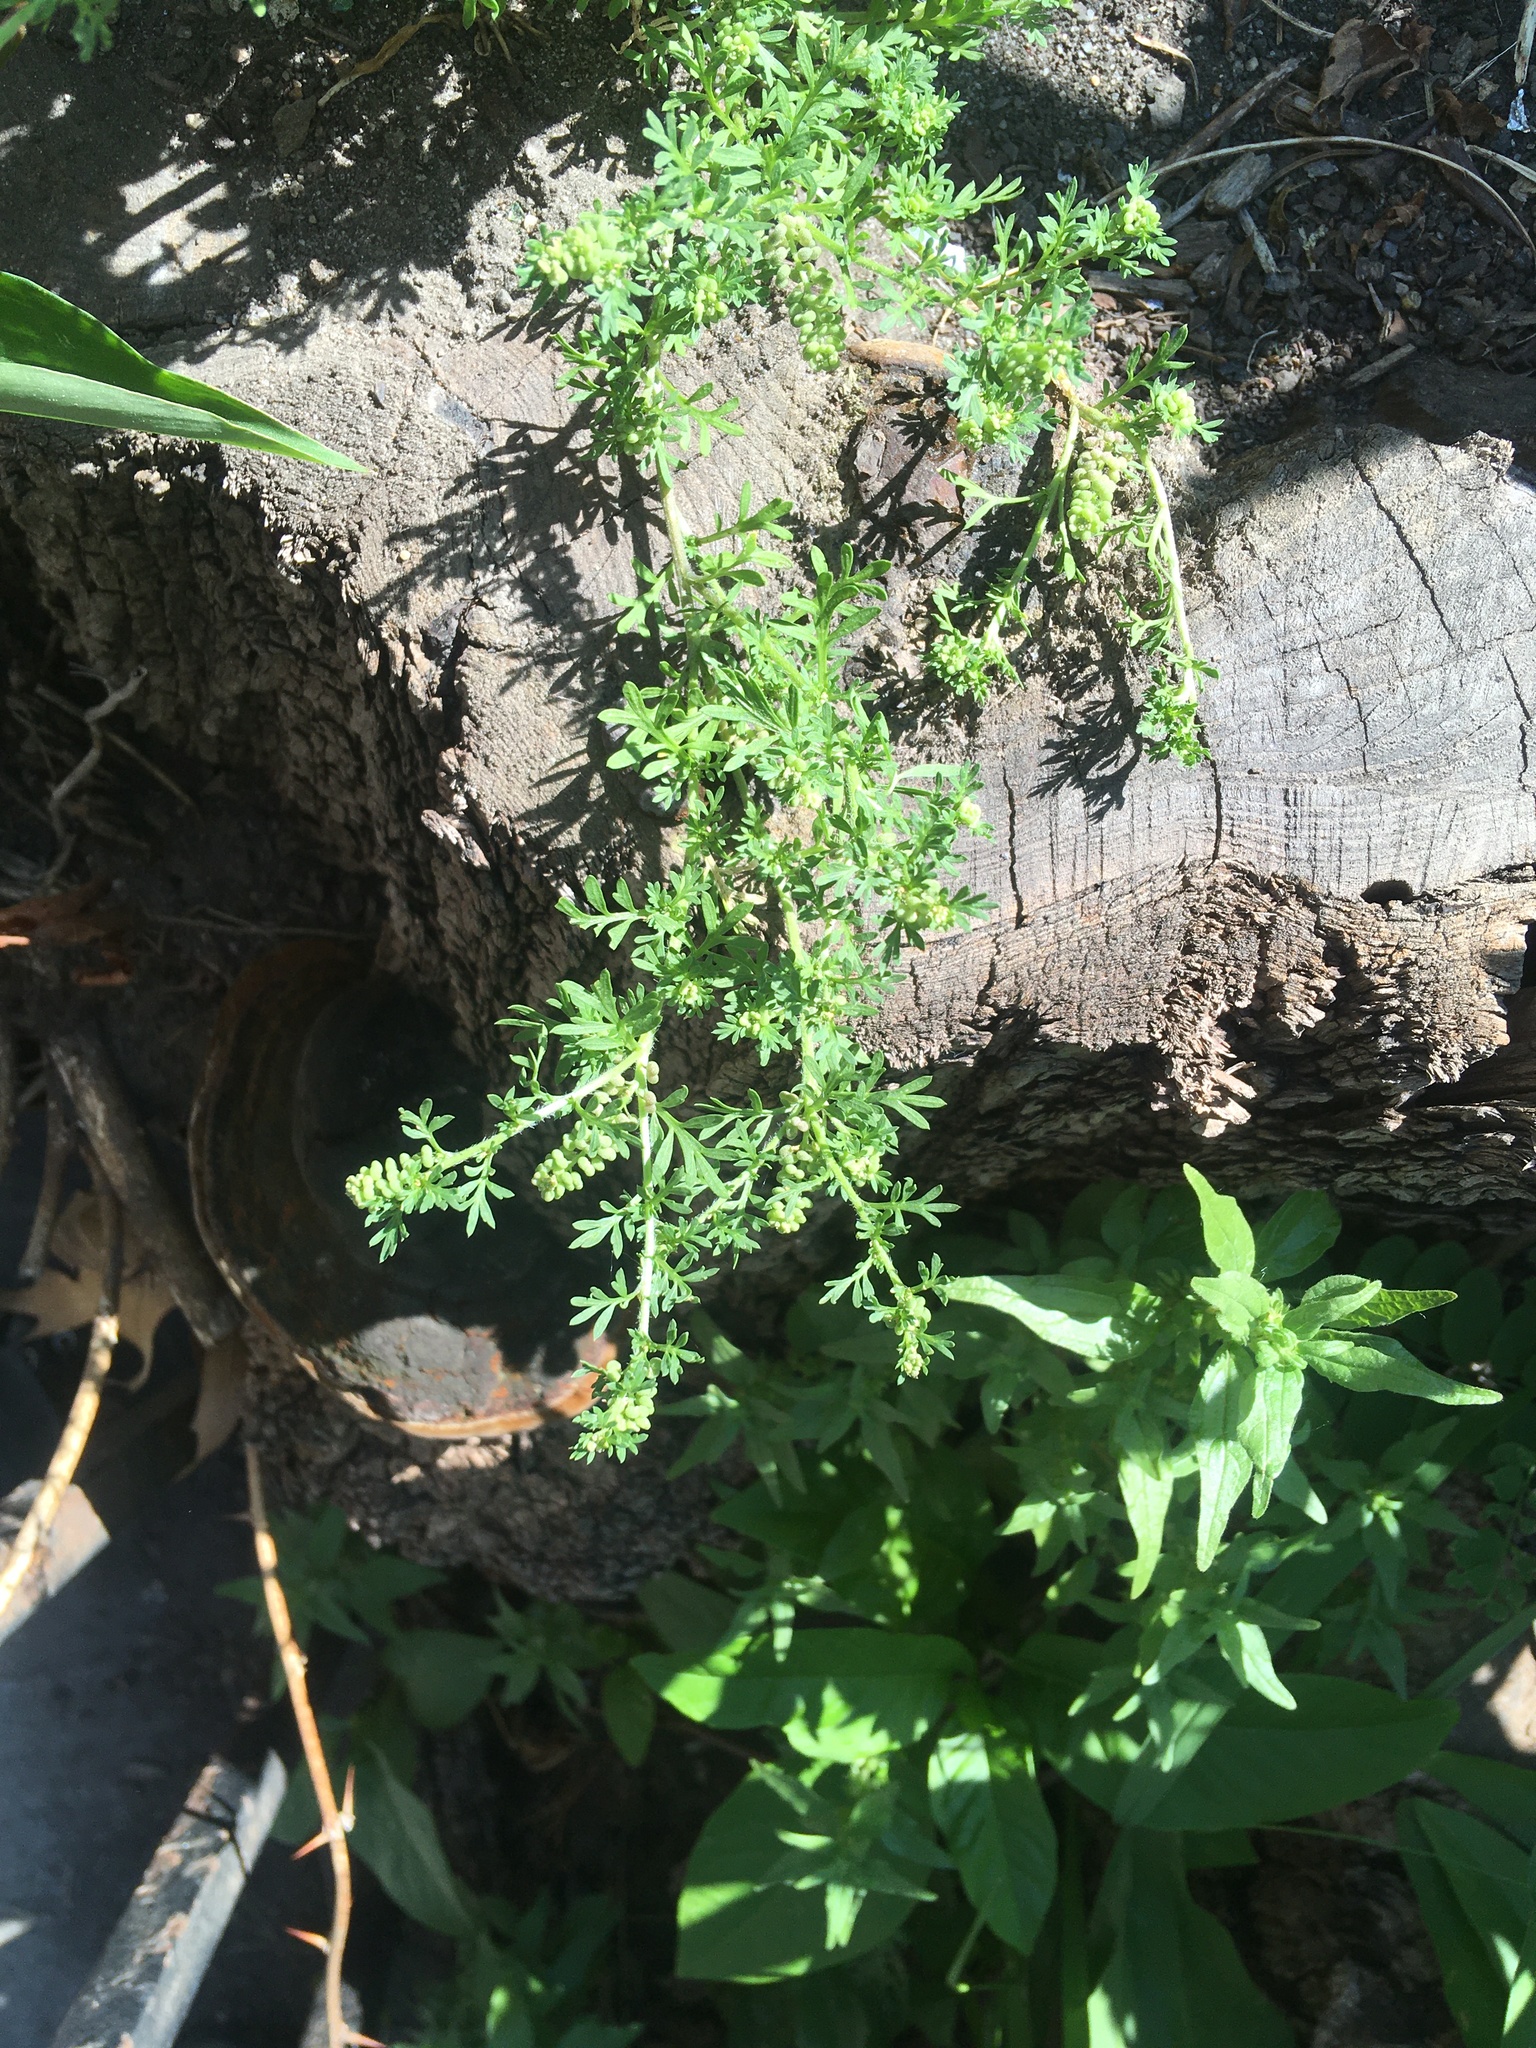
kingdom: Plantae
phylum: Tracheophyta
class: Magnoliopsida
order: Brassicales
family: Brassicaceae
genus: Lepidium
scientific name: Lepidium didymum
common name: Lesser swinecress
